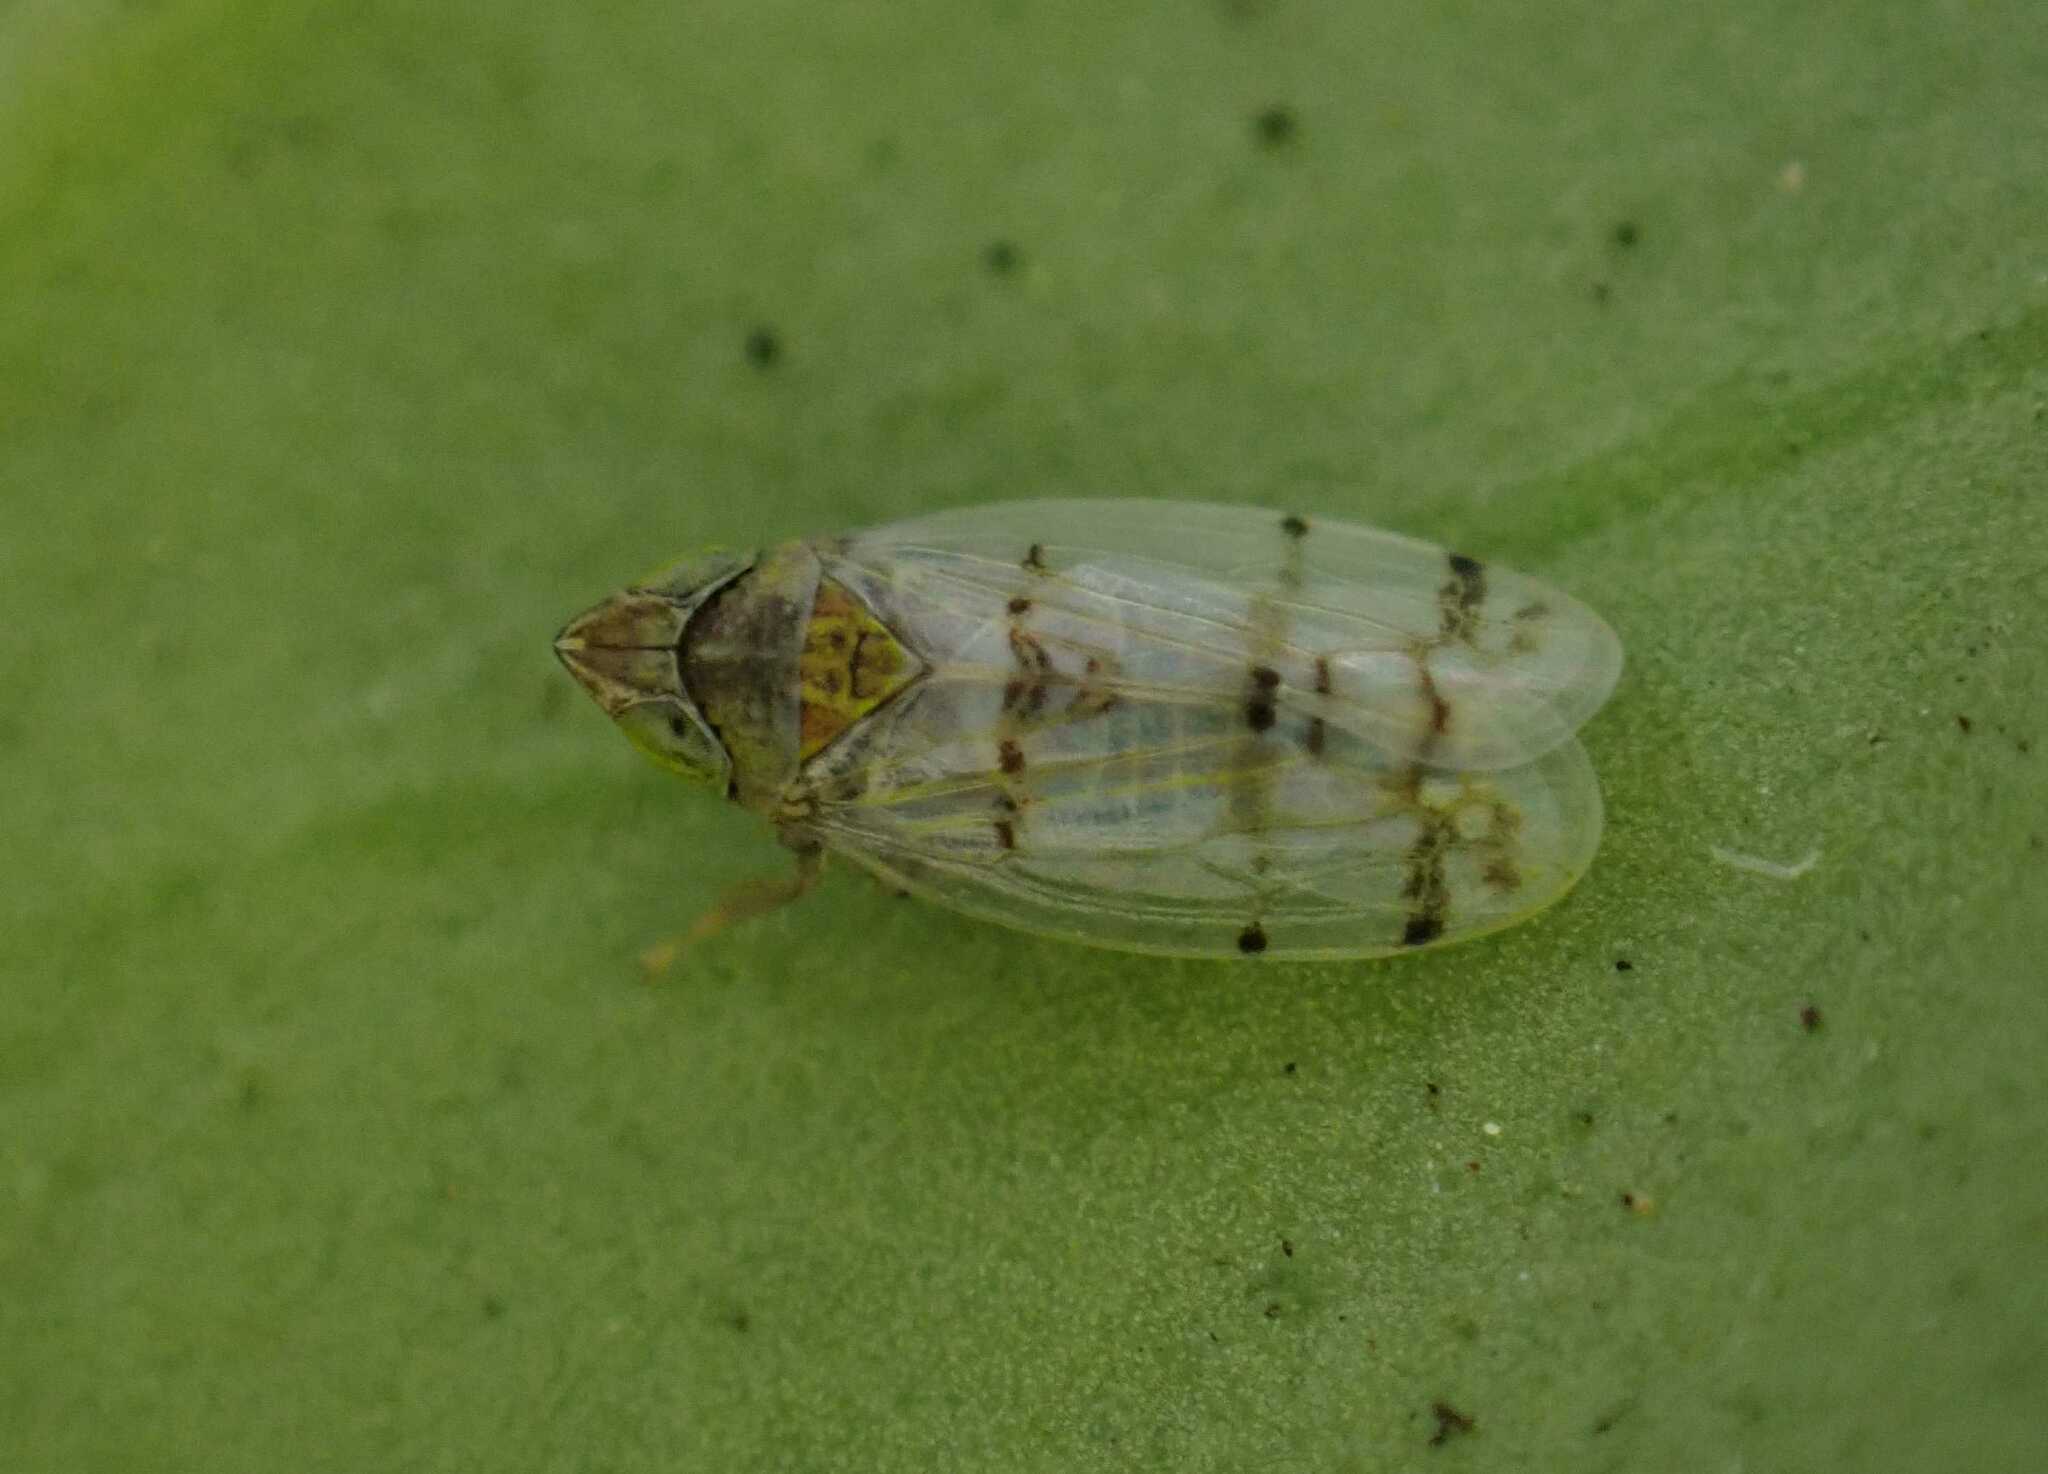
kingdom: Animalia
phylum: Arthropoda
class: Insecta
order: Hemiptera
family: Cicadellidae
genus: Japananus
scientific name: Japananus hyalinus
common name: The japanese maple leafhopper
